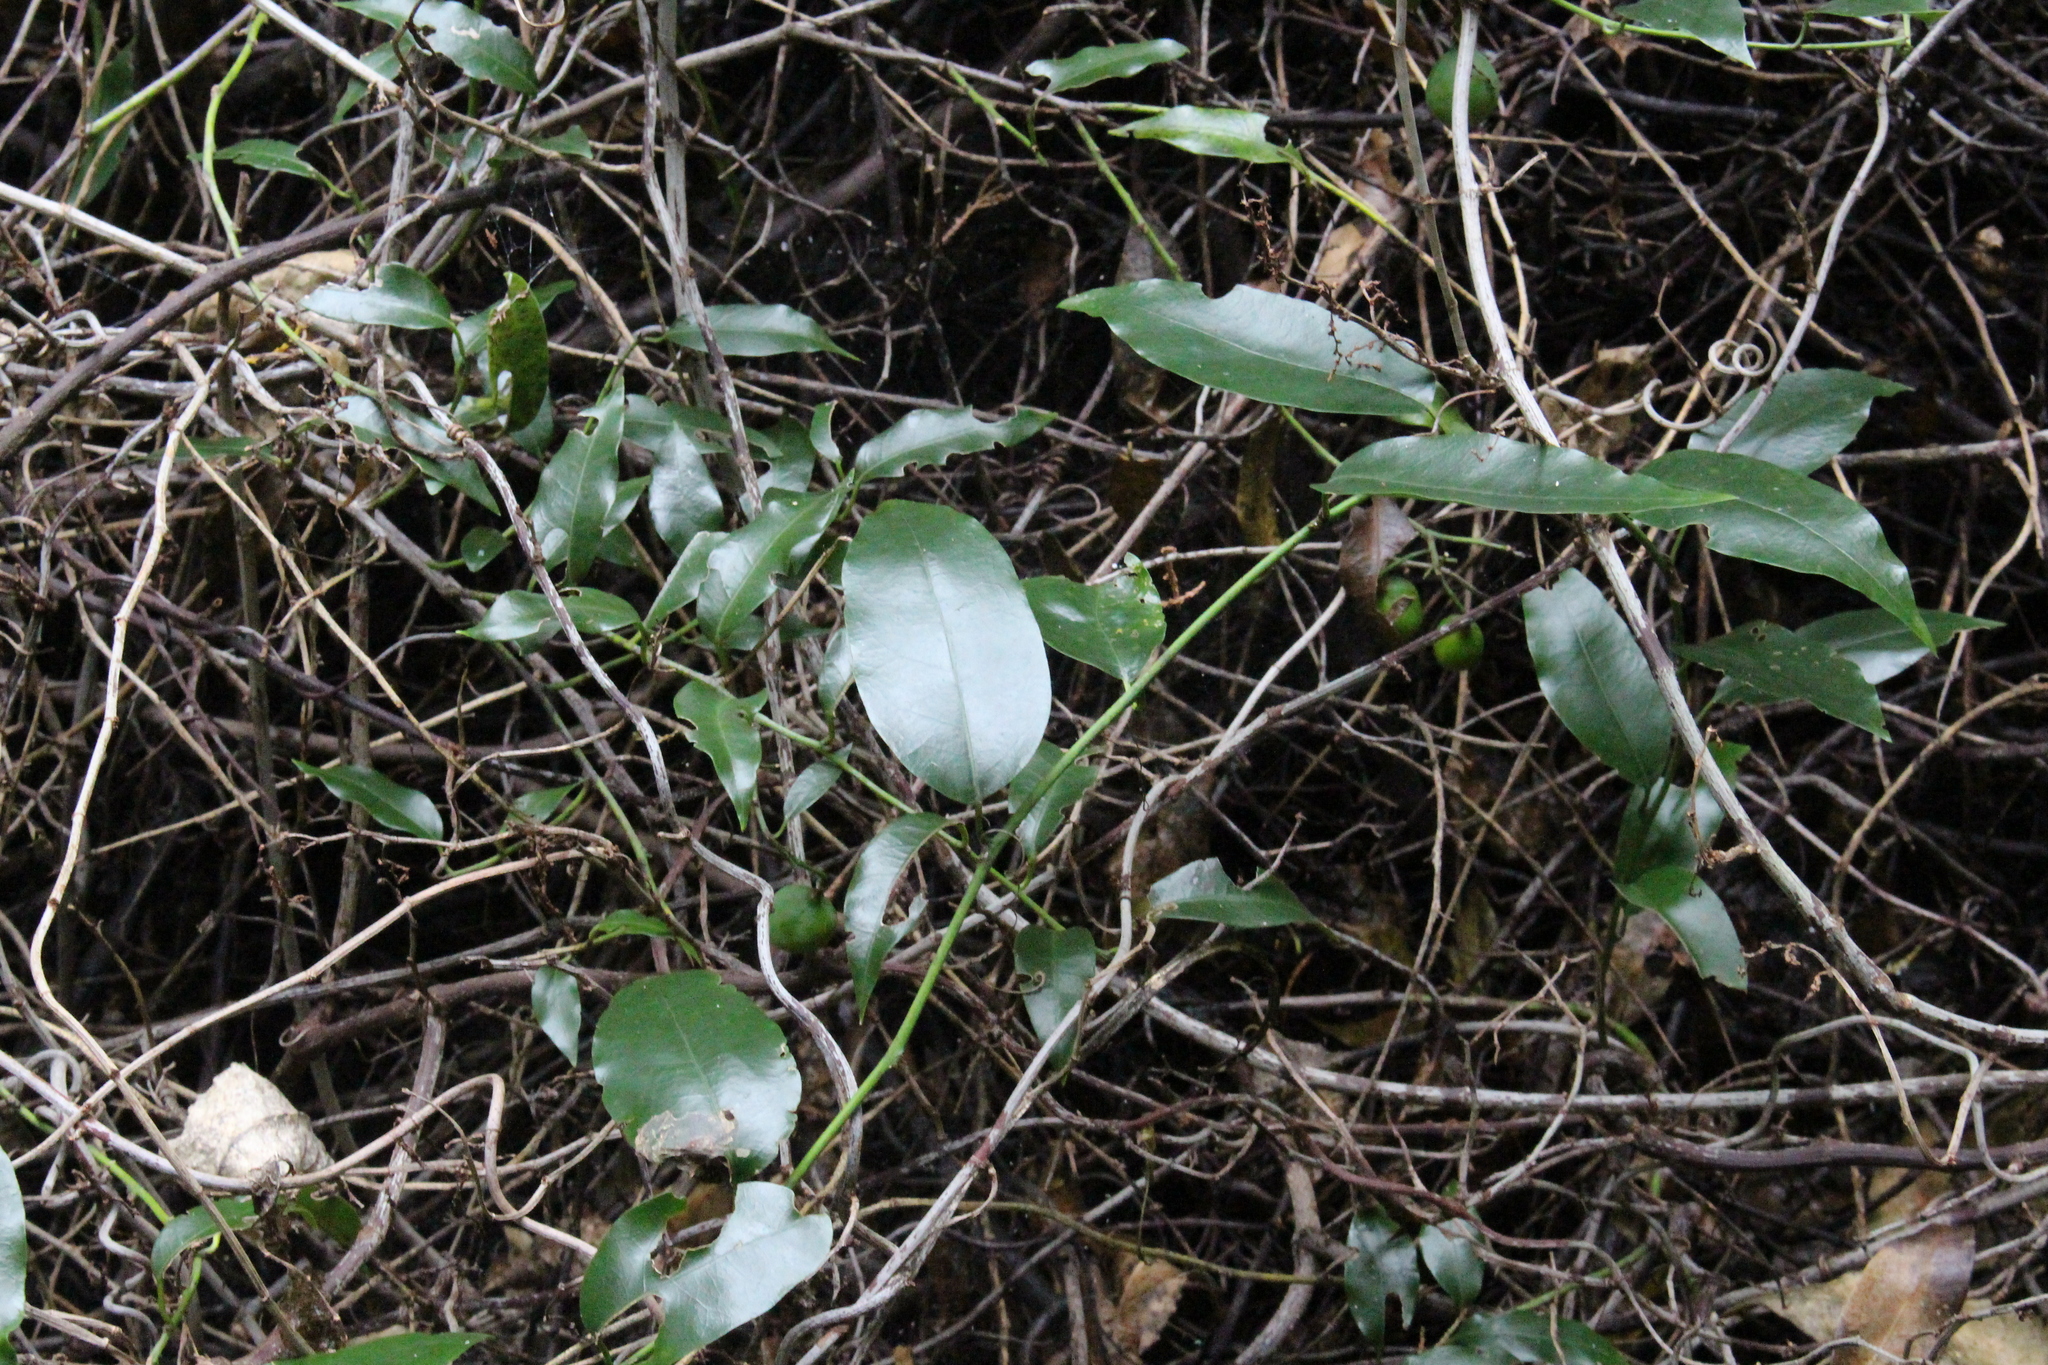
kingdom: Plantae
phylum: Tracheophyta
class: Magnoliopsida
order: Malpighiales
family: Passifloraceae
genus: Passiflora
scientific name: Passiflora tetrandra
